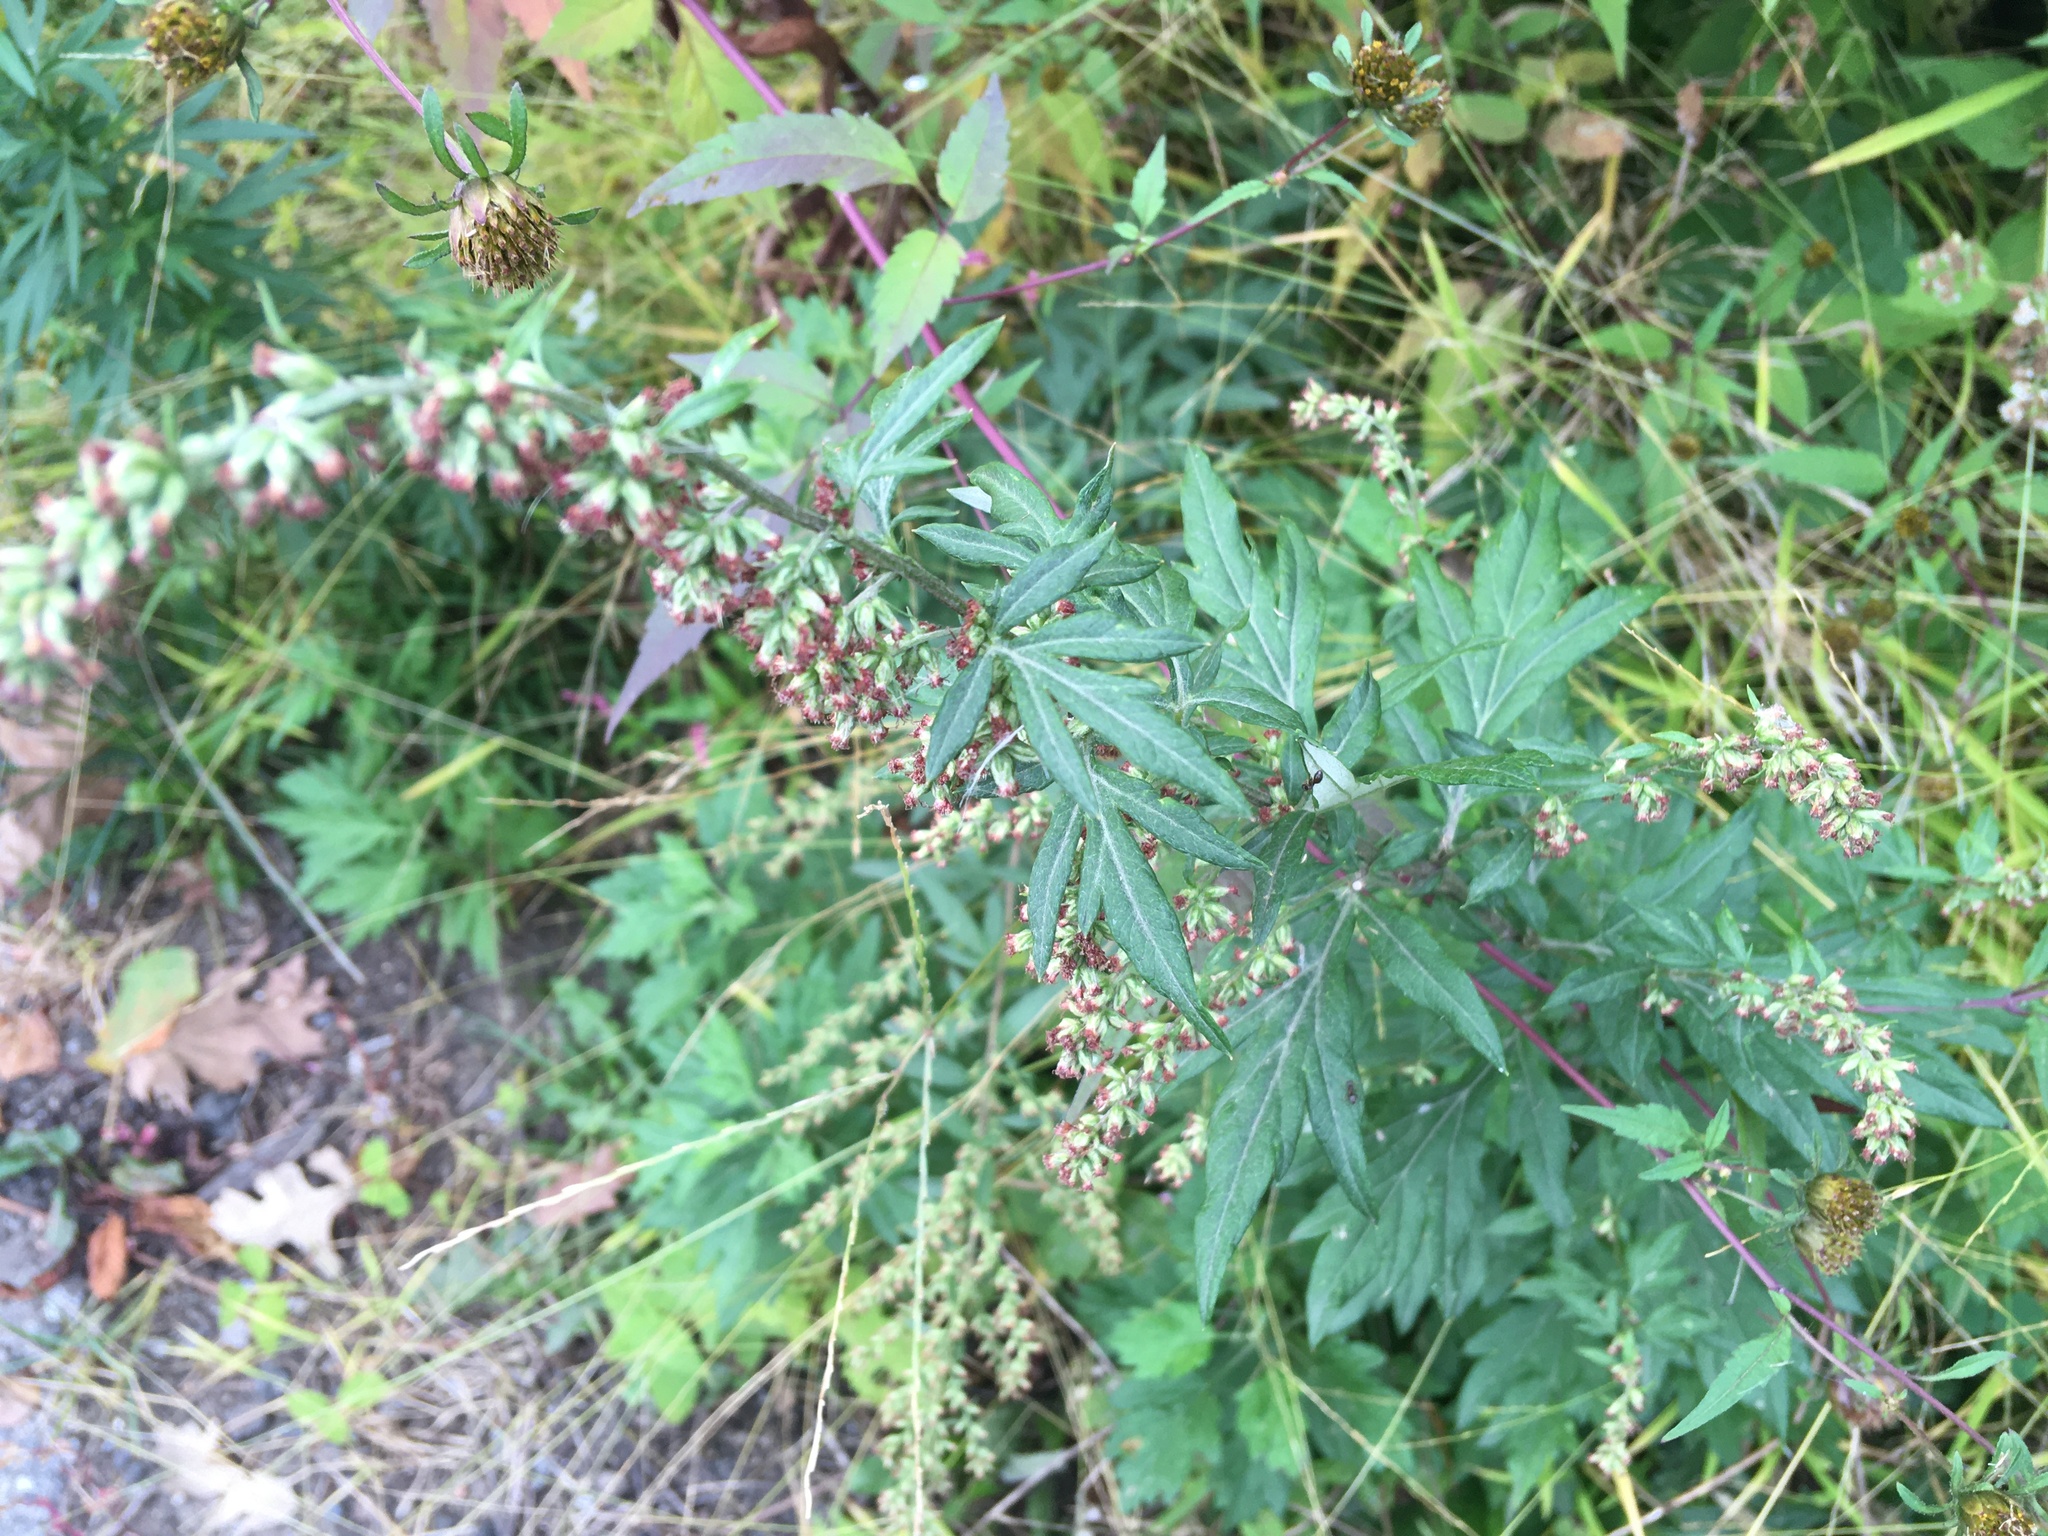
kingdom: Plantae
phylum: Tracheophyta
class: Magnoliopsida
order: Asterales
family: Asteraceae
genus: Artemisia
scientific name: Artemisia vulgaris
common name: Mugwort
